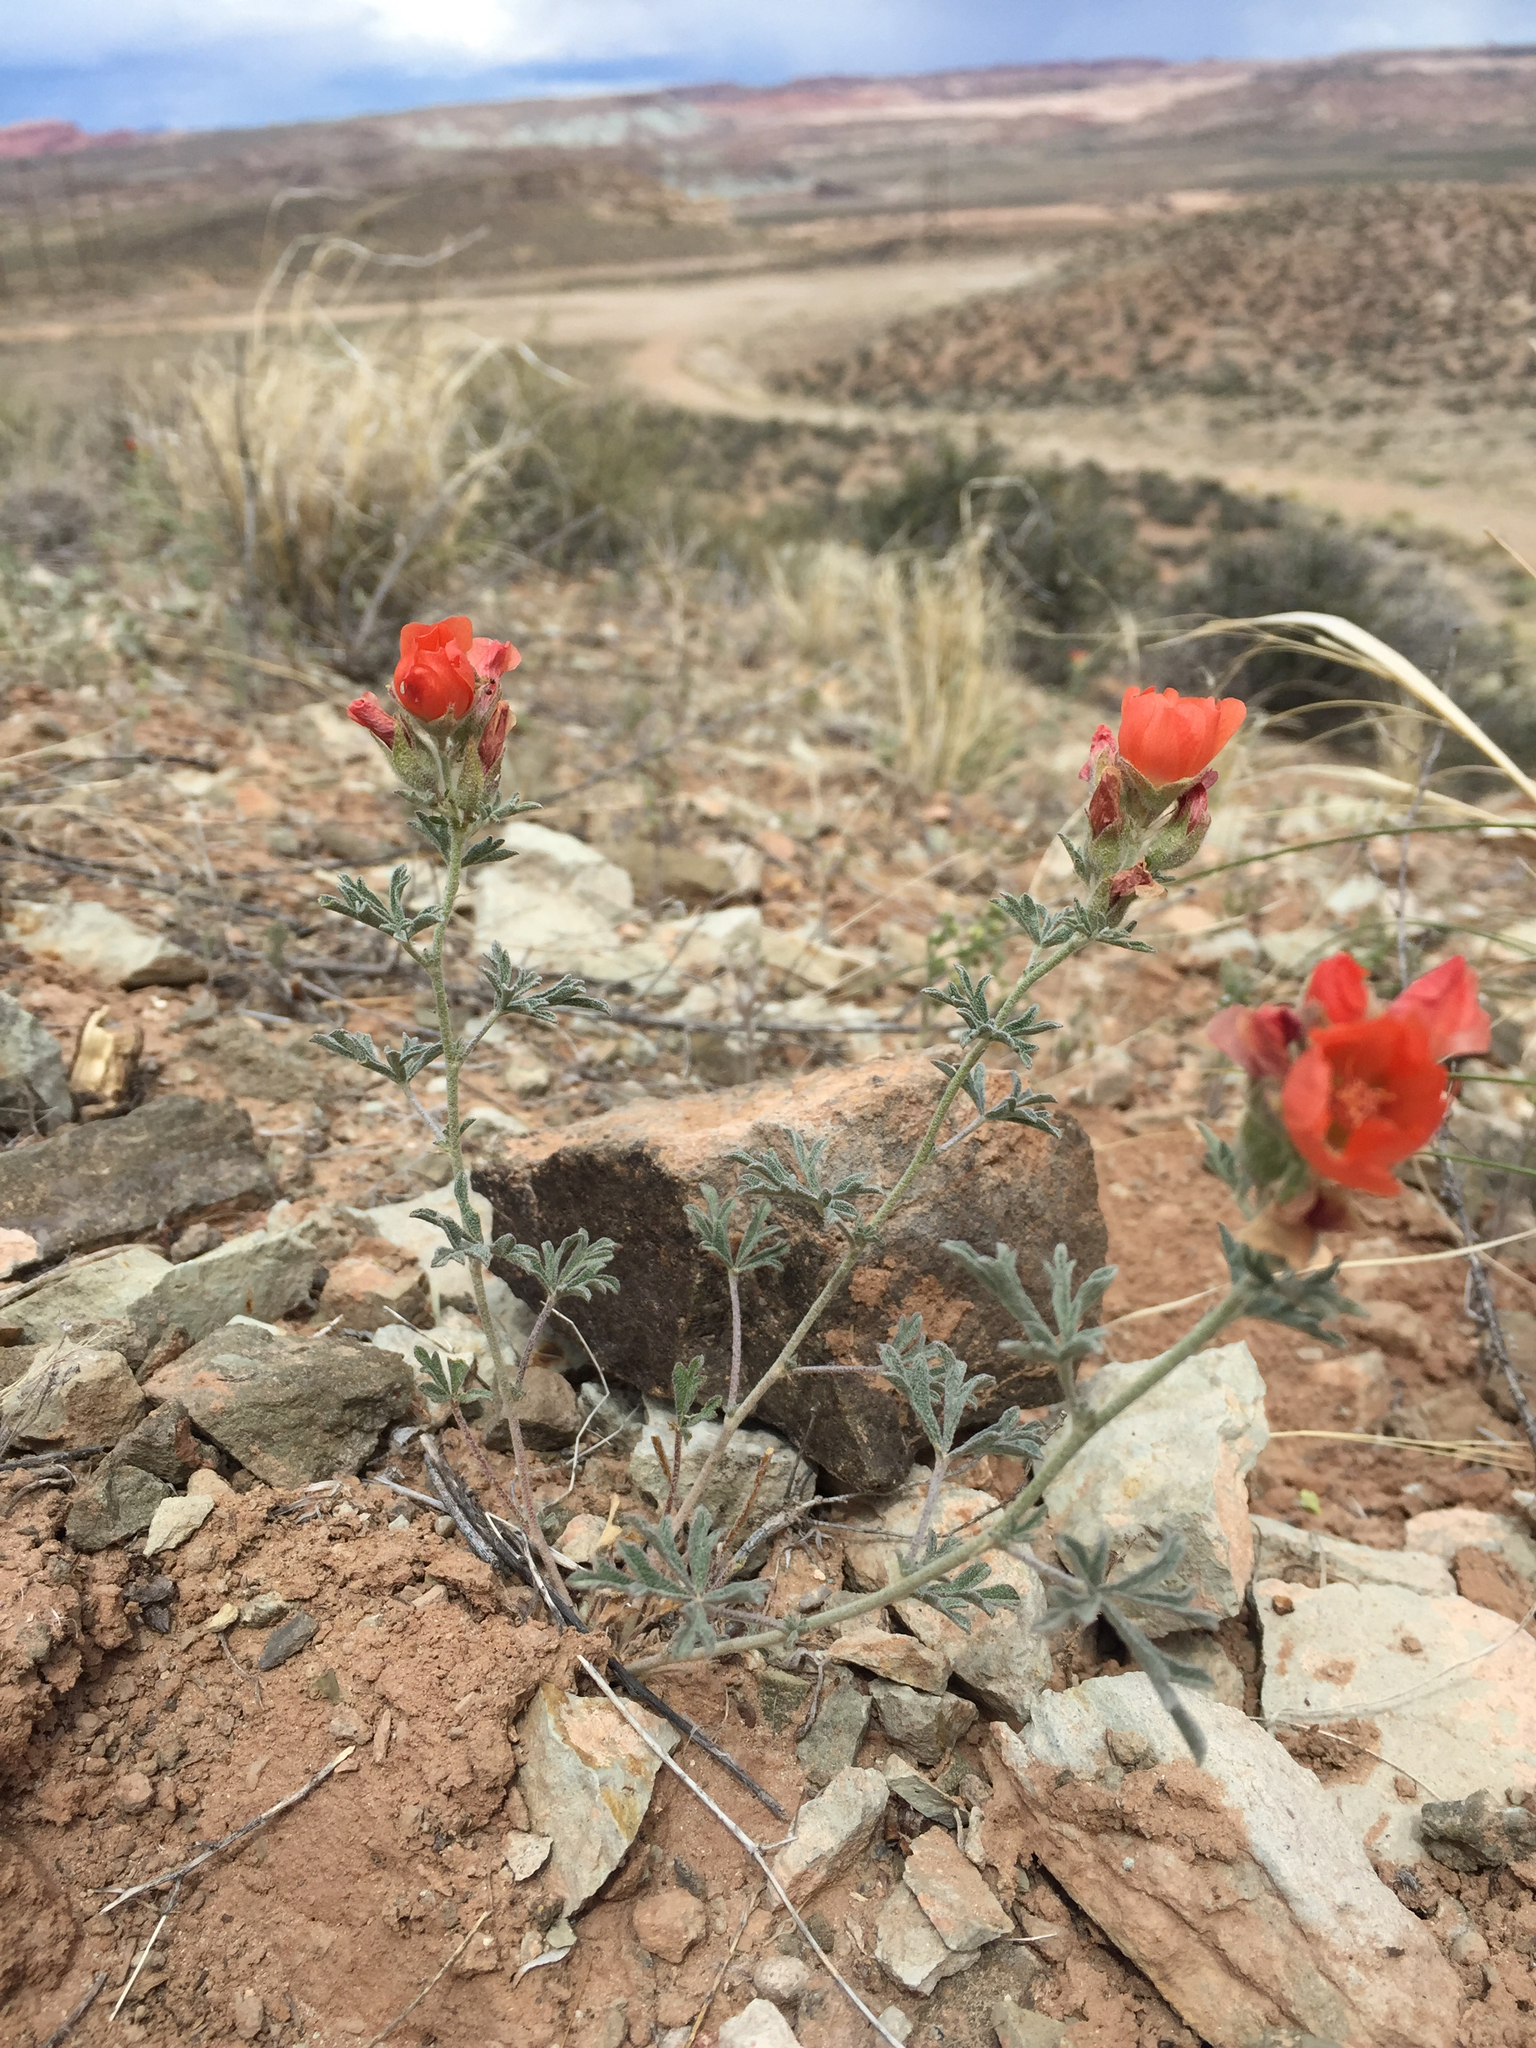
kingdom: Plantae
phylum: Tracheophyta
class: Magnoliopsida
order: Malvales
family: Malvaceae
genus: Sphaeralcea
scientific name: Sphaeralcea coccinea
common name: Moss-rose
